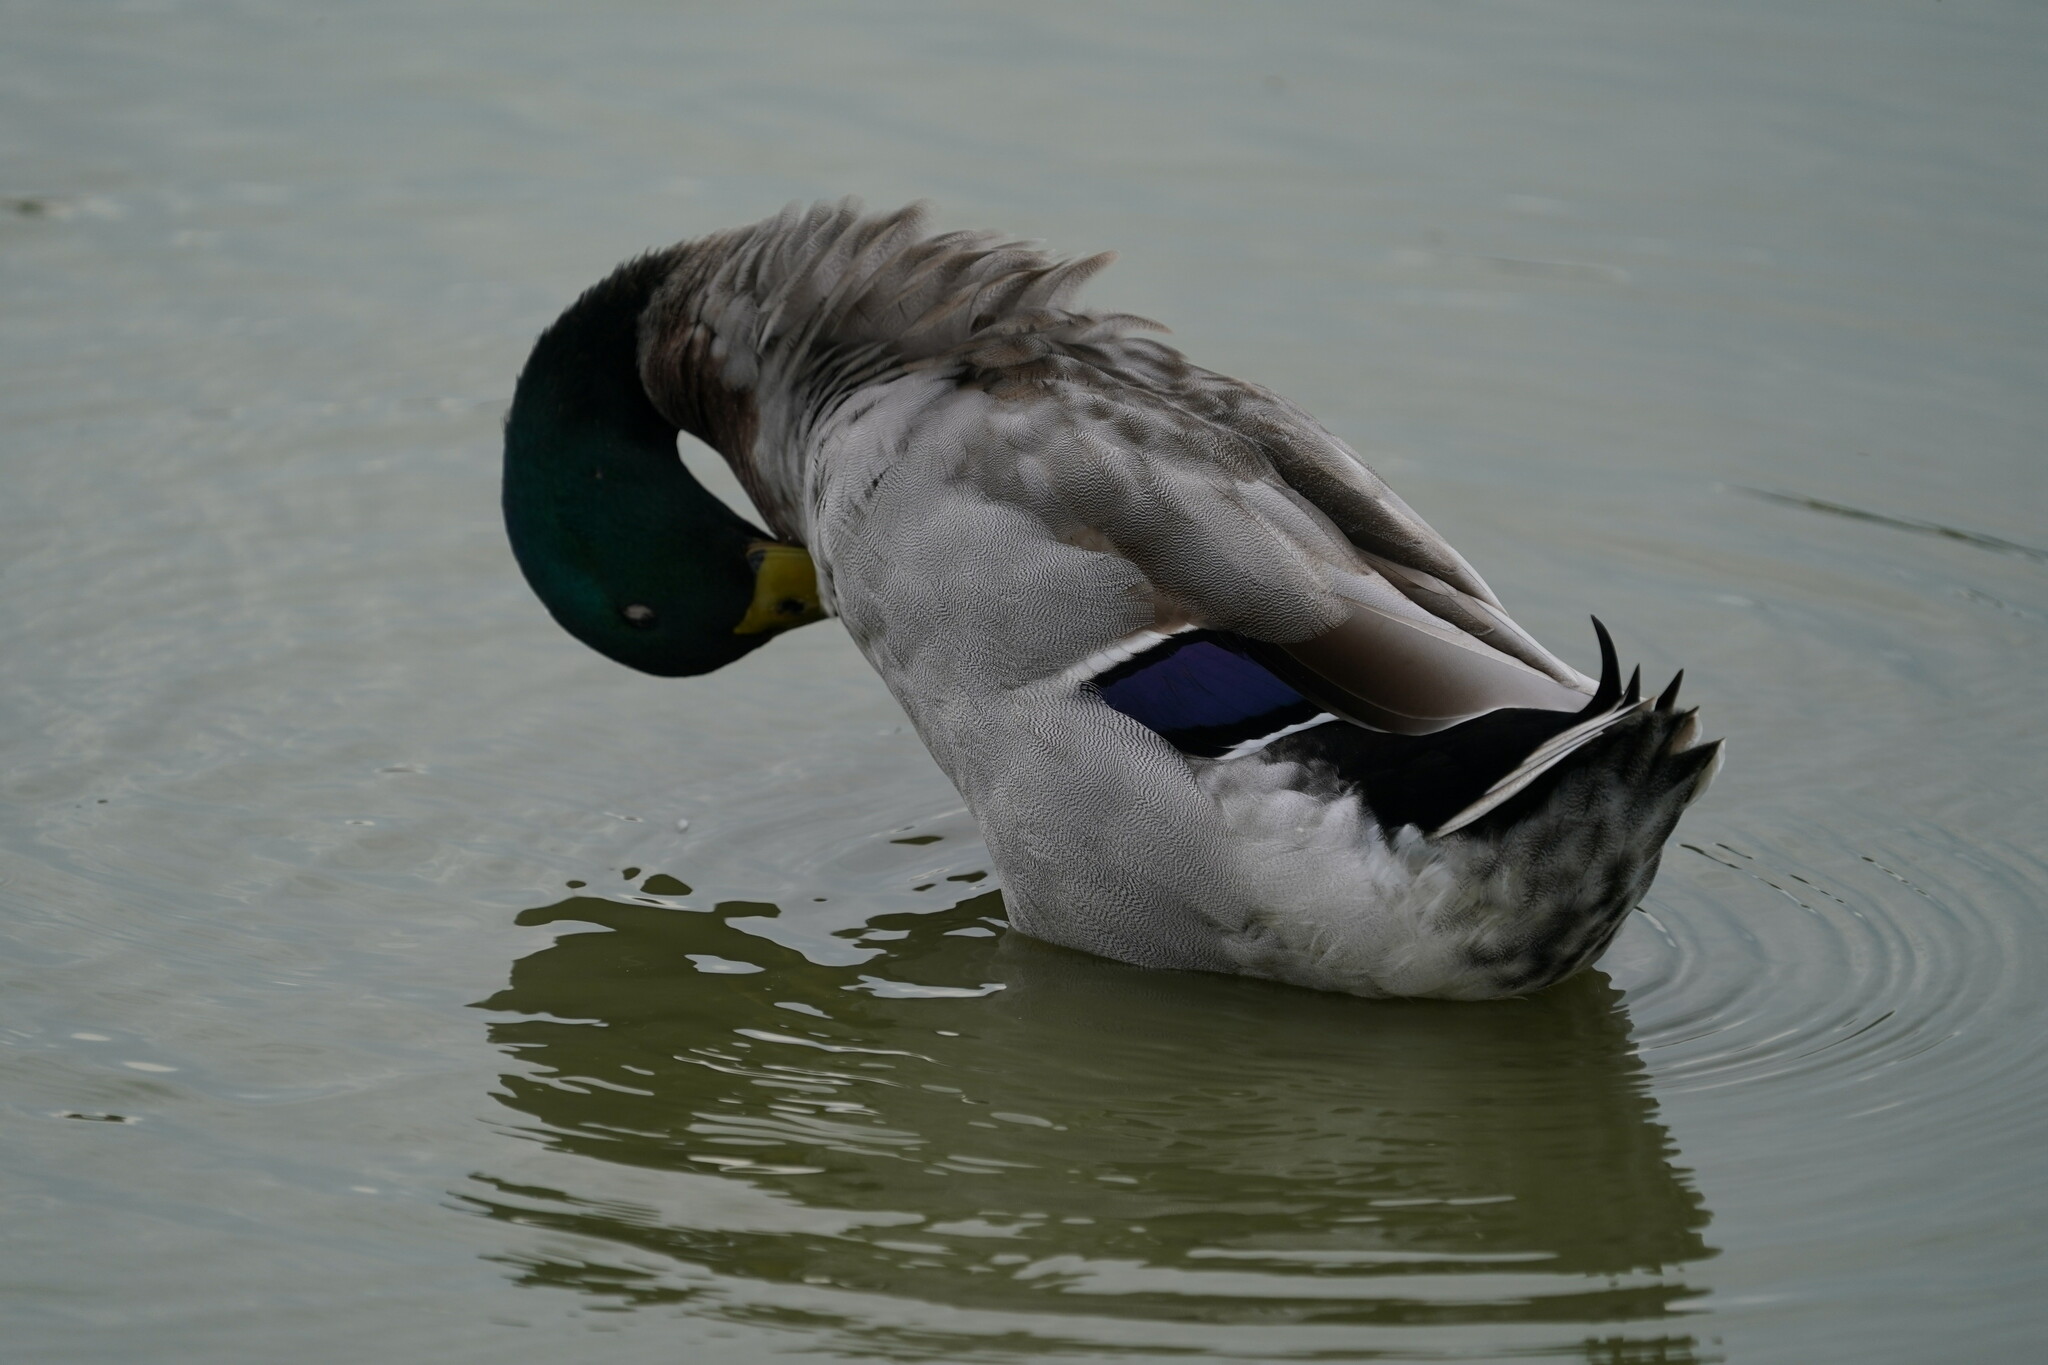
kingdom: Animalia
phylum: Chordata
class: Aves
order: Anseriformes
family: Anatidae
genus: Anas
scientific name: Anas platyrhynchos
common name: Mallard
